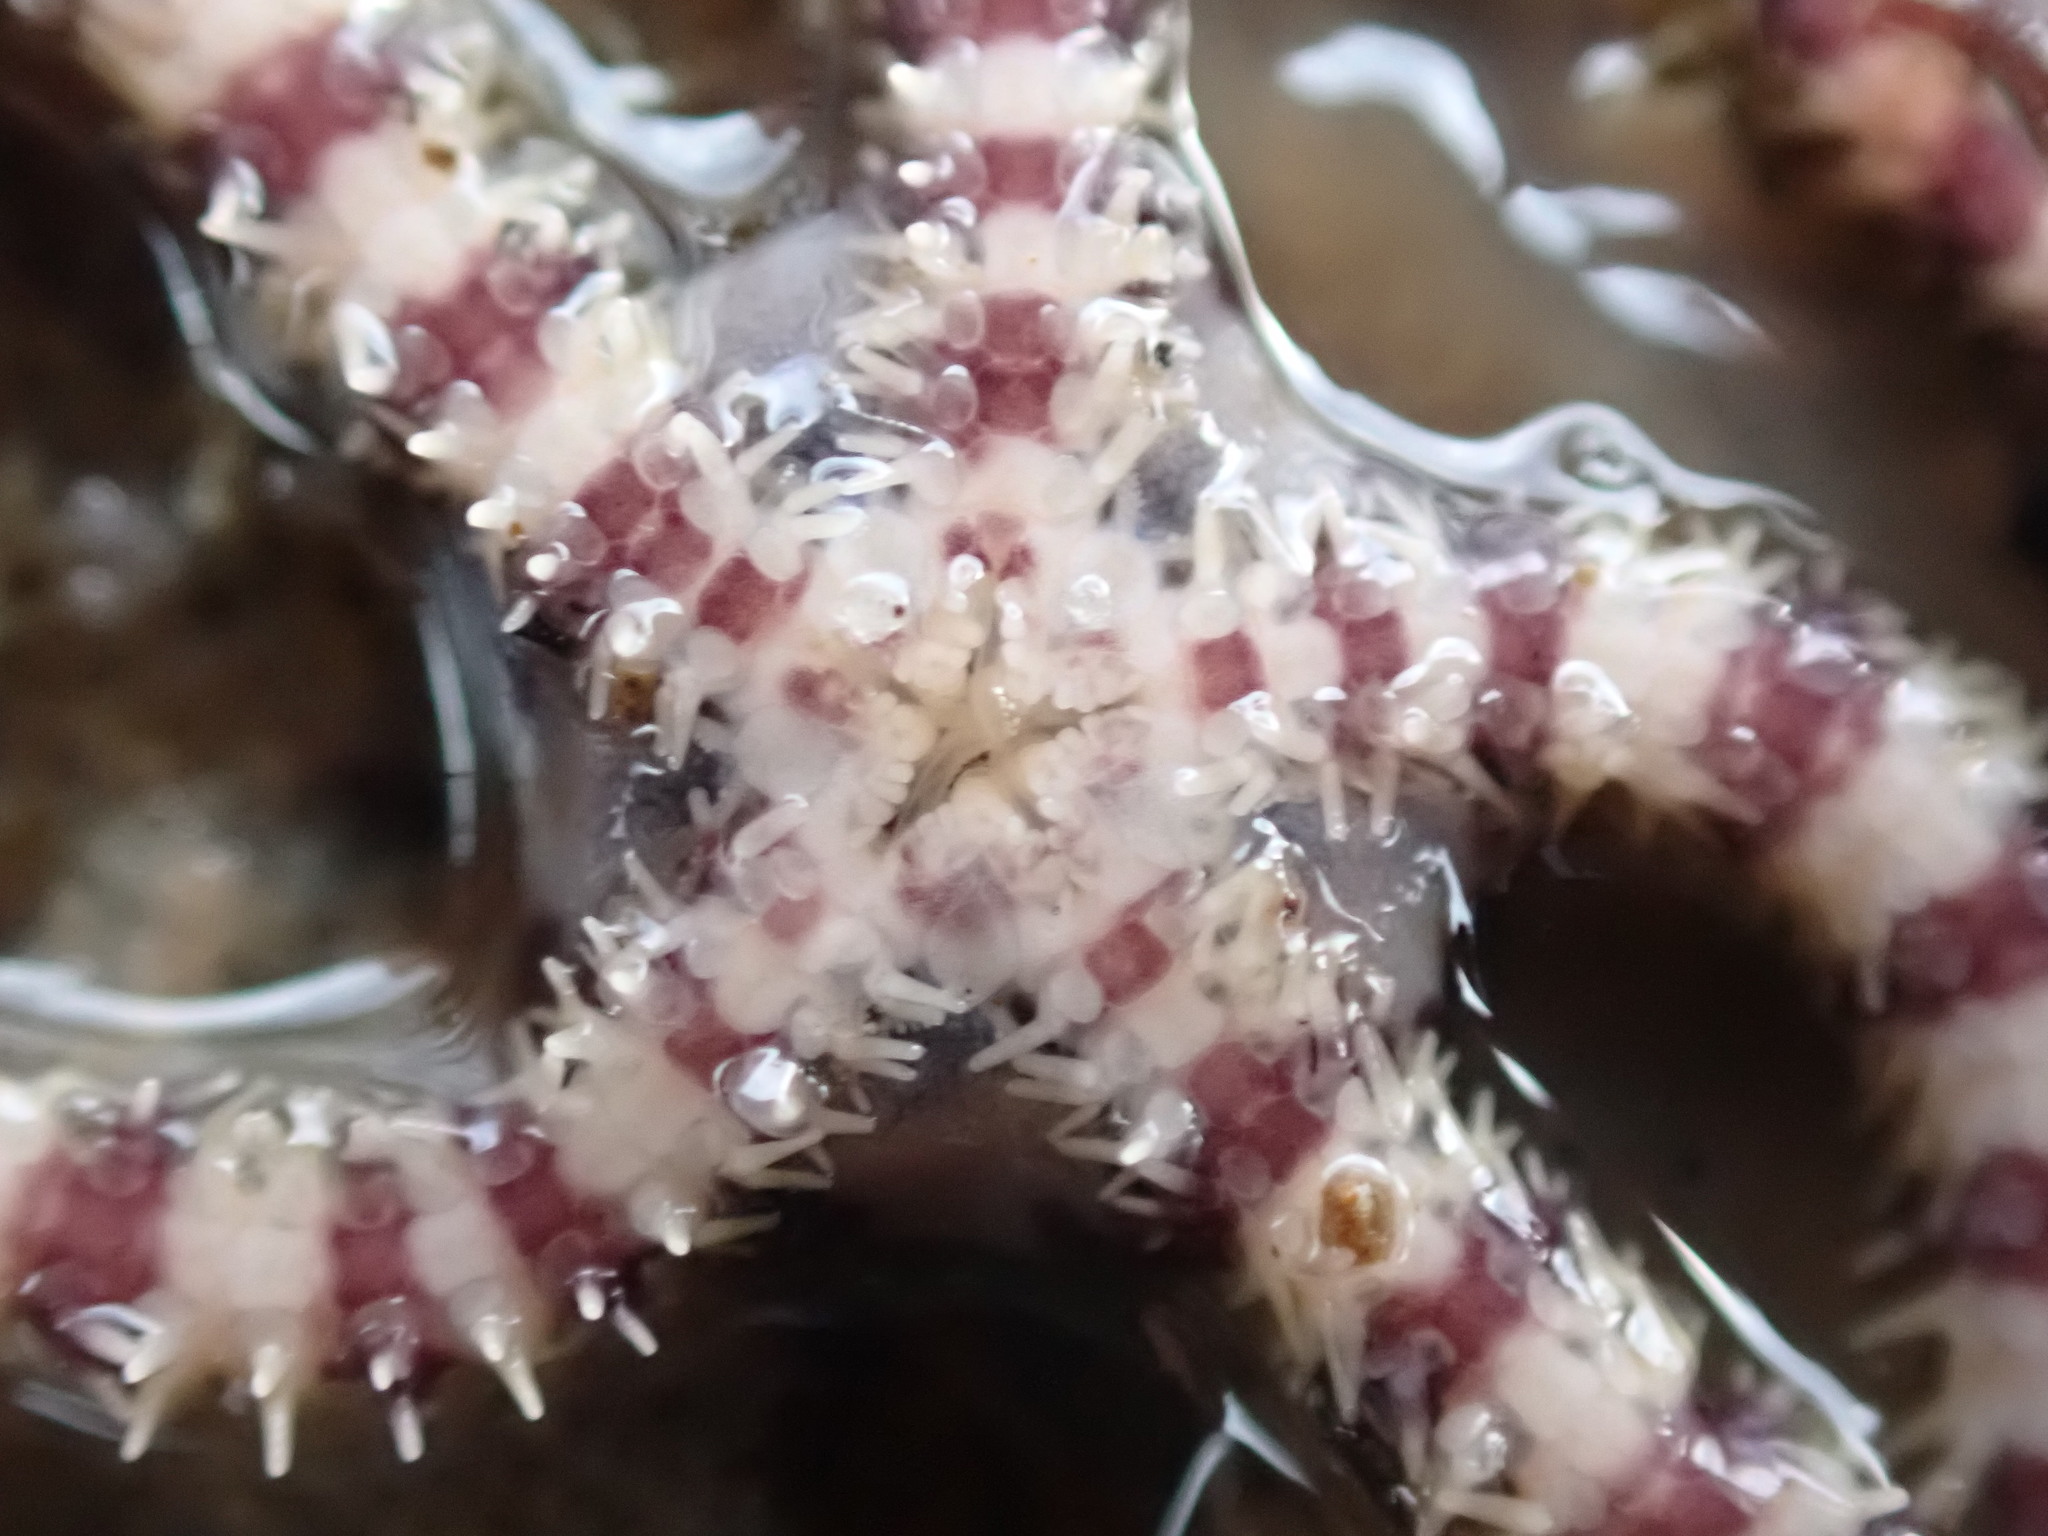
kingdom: Animalia
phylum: Echinodermata
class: Ophiuroidea
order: Amphilepidida
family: Ophionereididae
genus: Ophionereis
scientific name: Ophionereis fasciata
